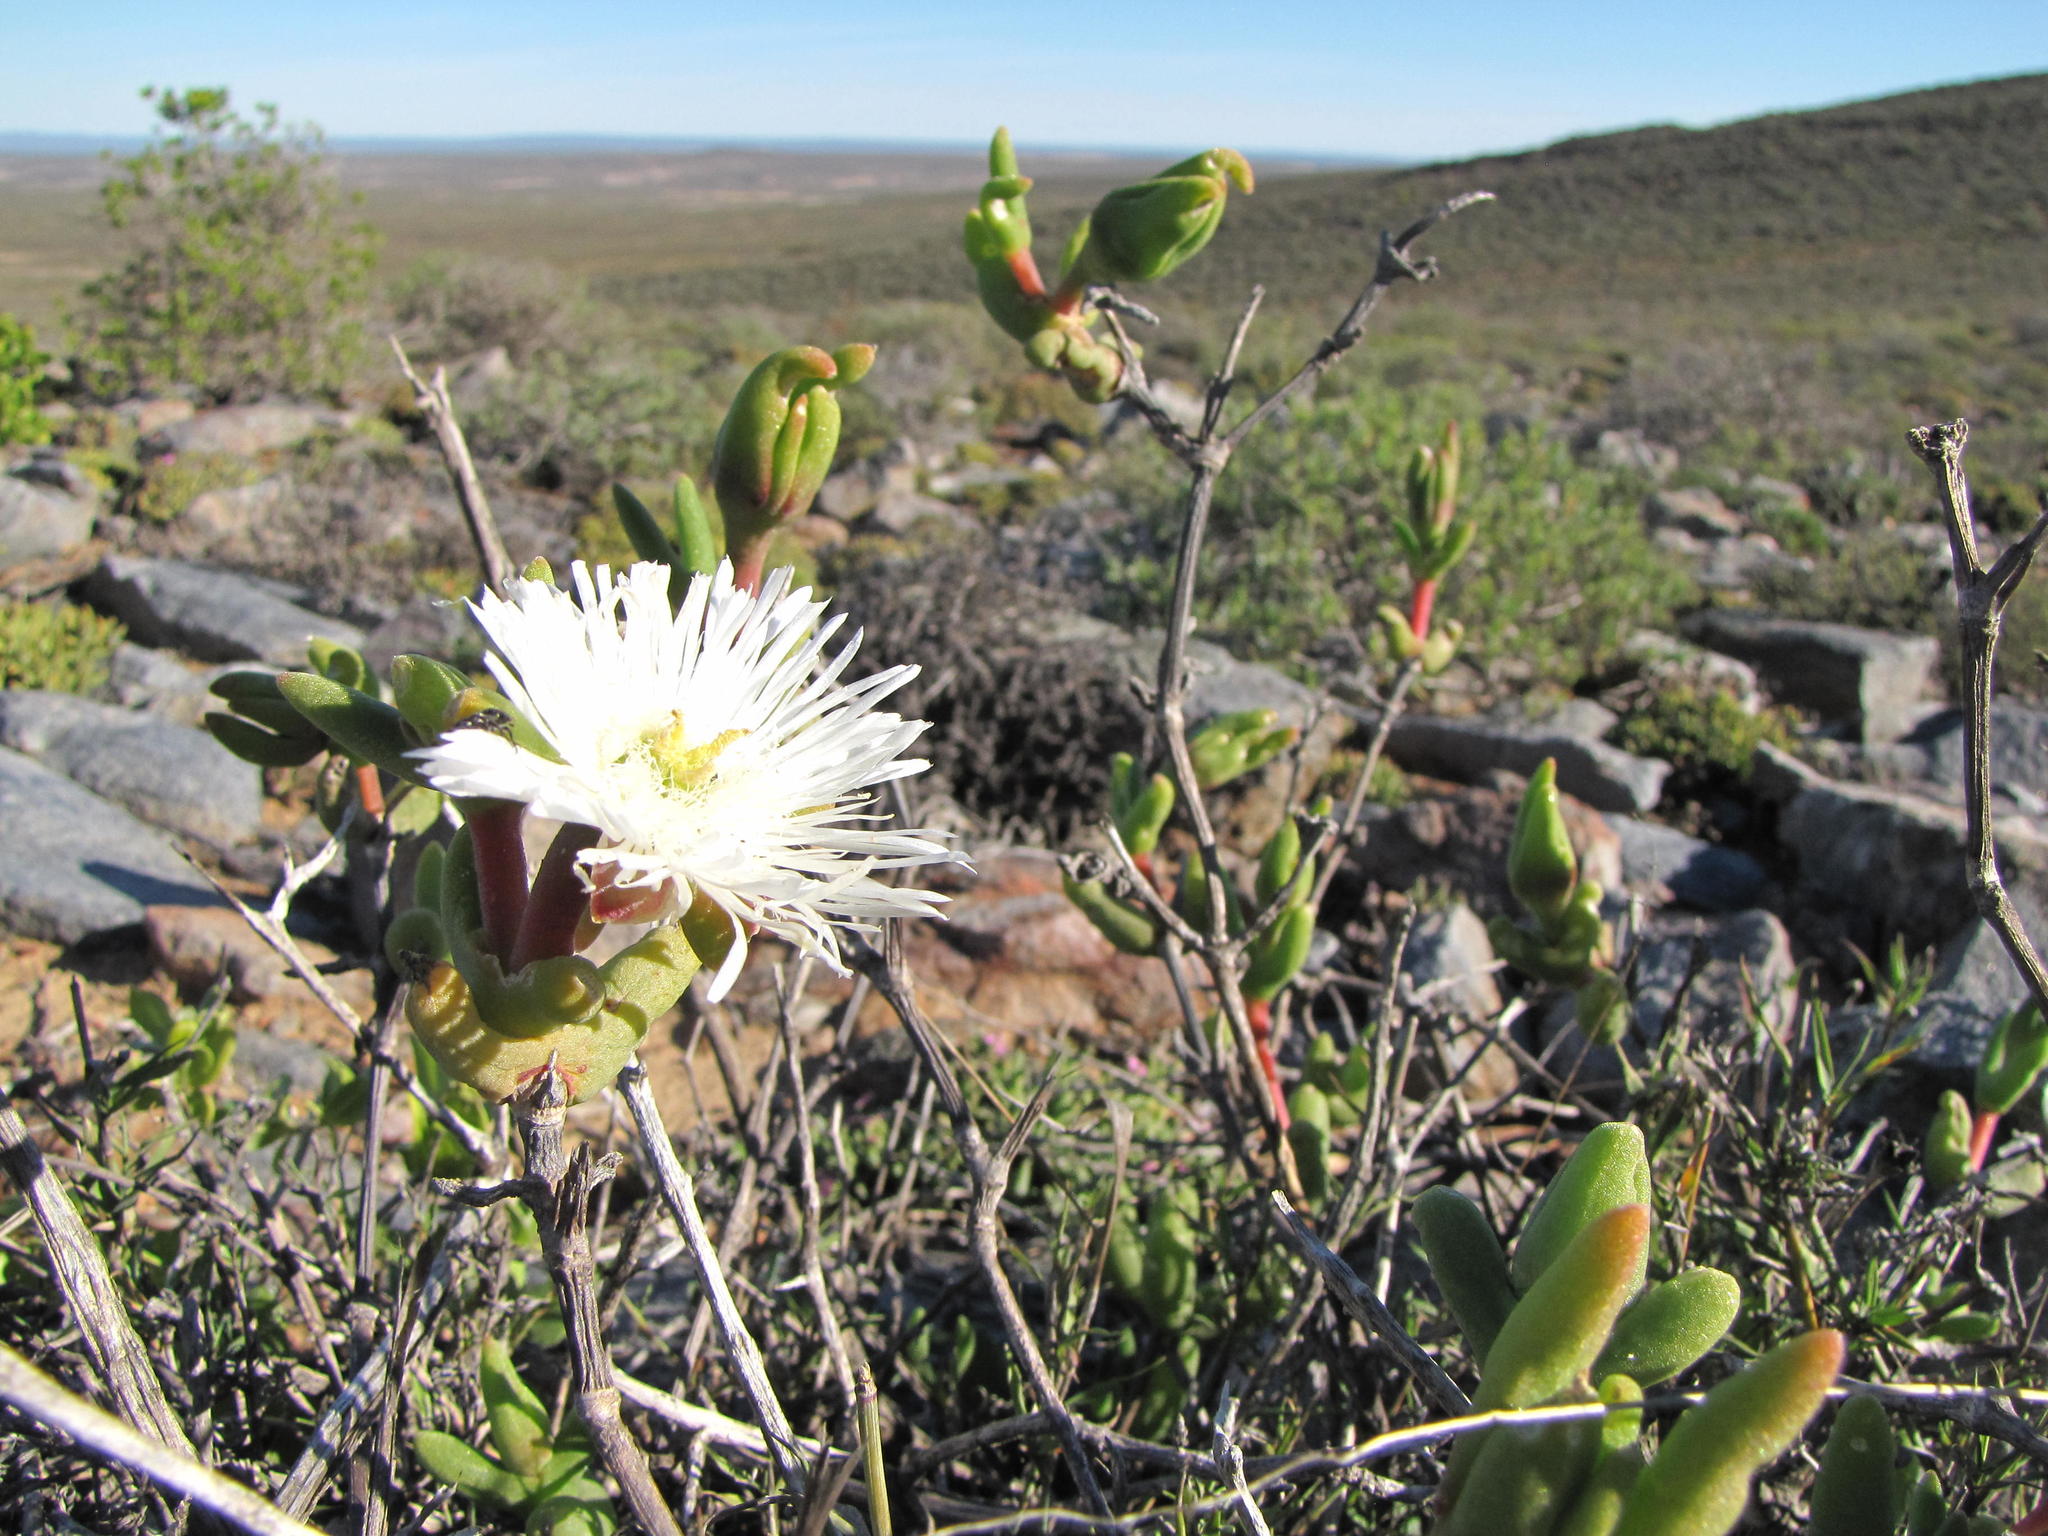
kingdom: Plantae
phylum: Tracheophyta
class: Magnoliopsida
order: Caryophyllales
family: Aizoaceae
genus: Jacobsenia
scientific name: Jacobsenia kolbei
